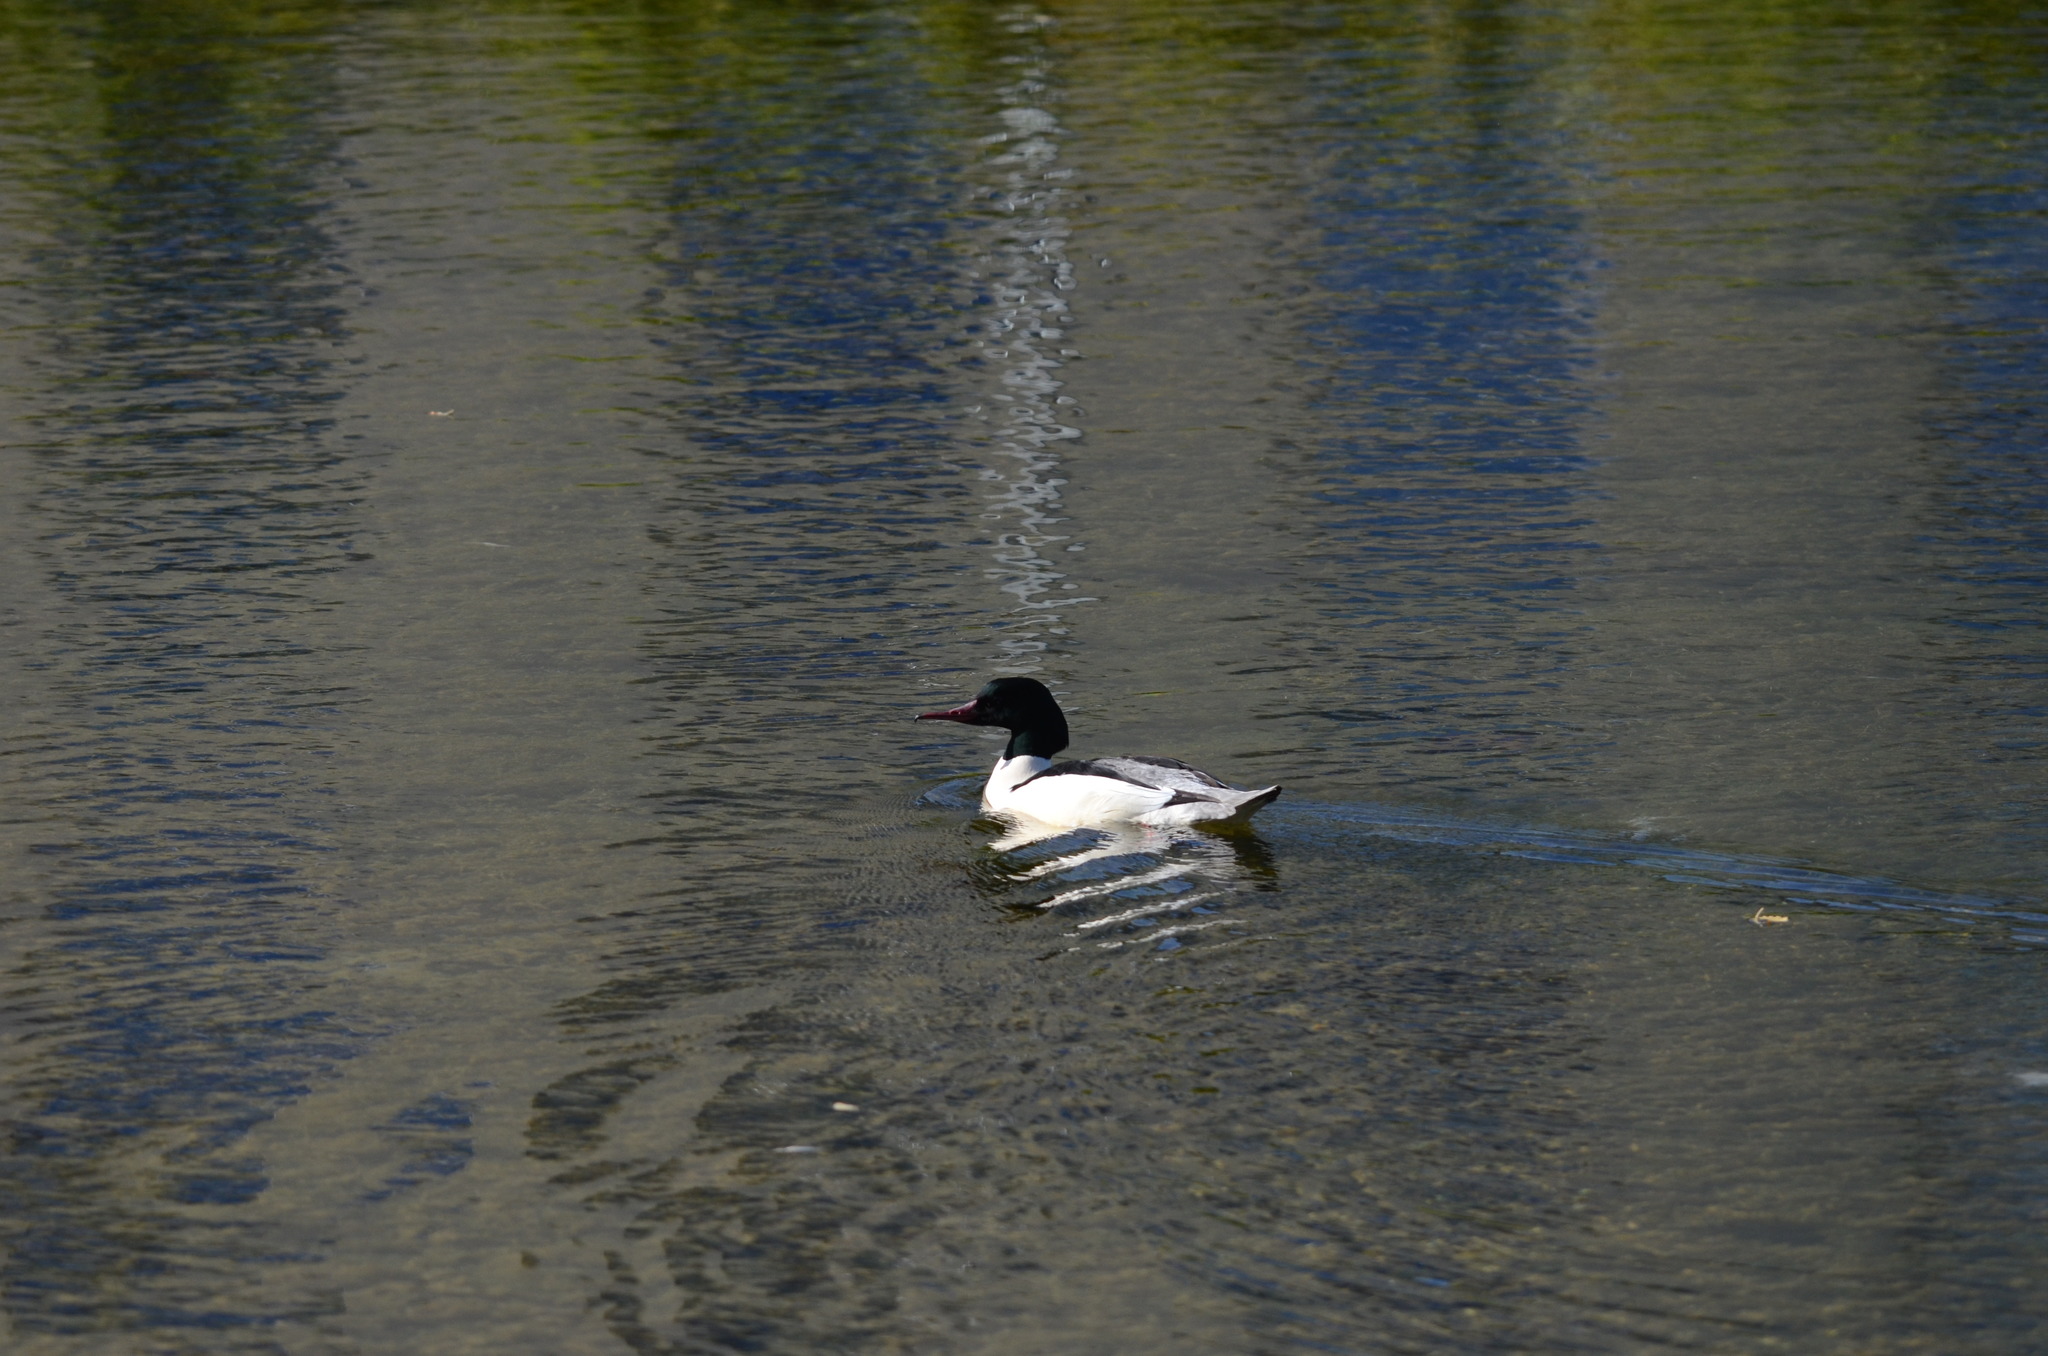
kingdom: Animalia
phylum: Chordata
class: Aves
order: Anseriformes
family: Anatidae
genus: Mergus
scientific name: Mergus merganser
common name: Common merganser
